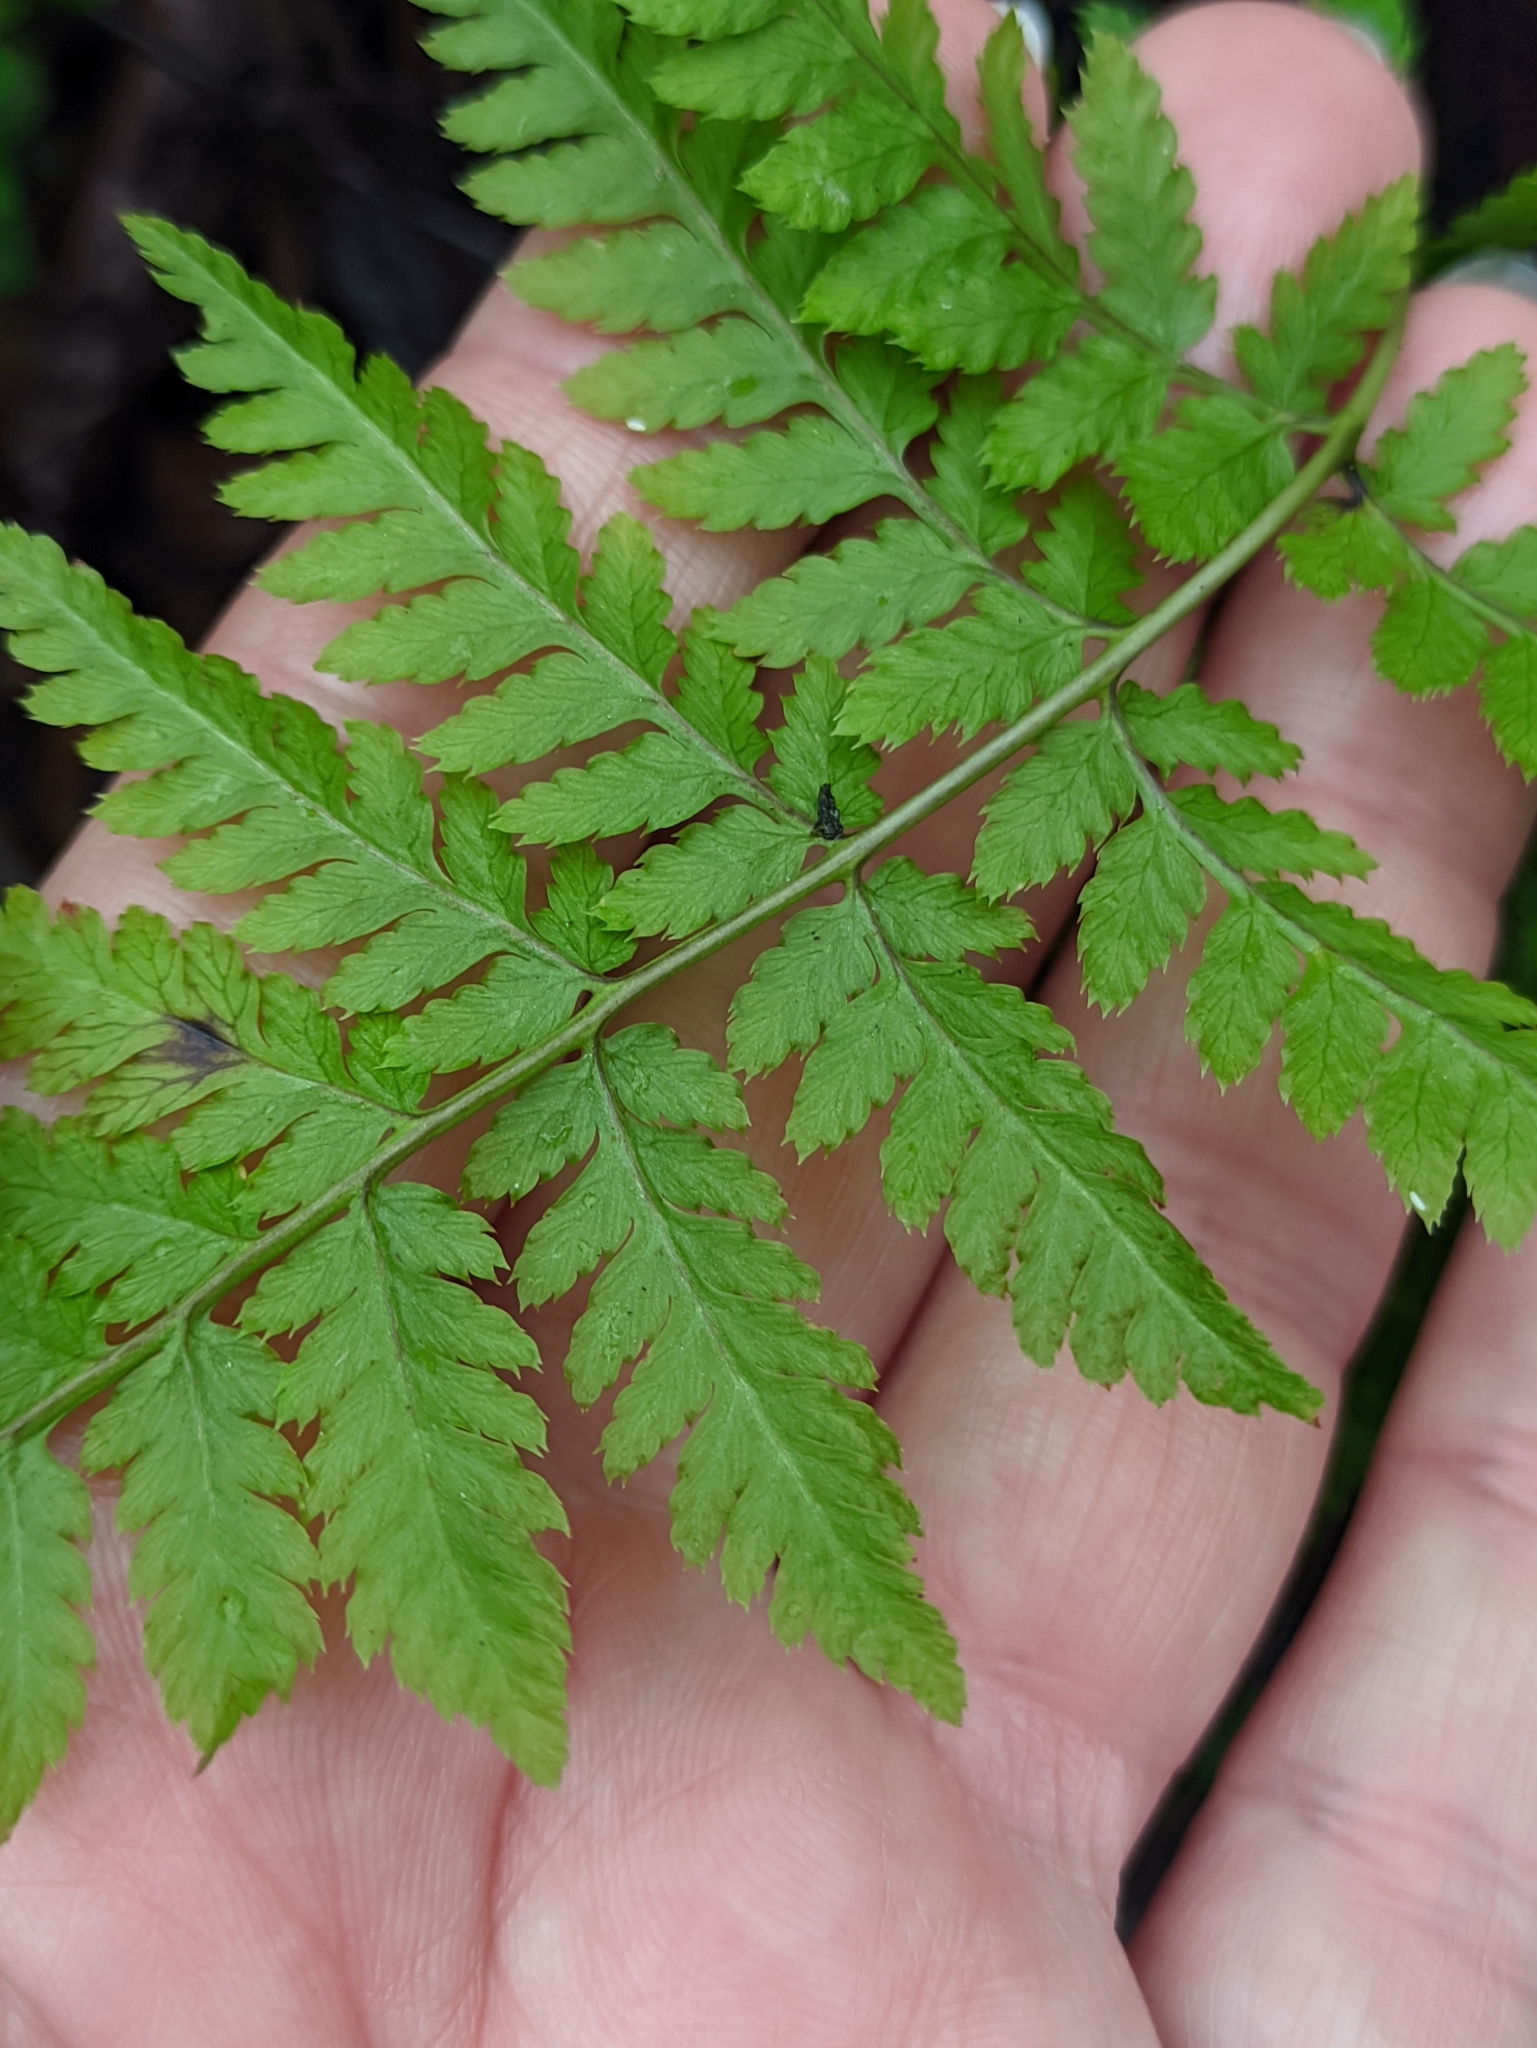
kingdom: Plantae
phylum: Tracheophyta
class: Polypodiopsida
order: Polypodiales
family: Dryopteridaceae
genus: Dryopteris
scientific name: Dryopteris carthusiana
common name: Narrow buckler-fern
